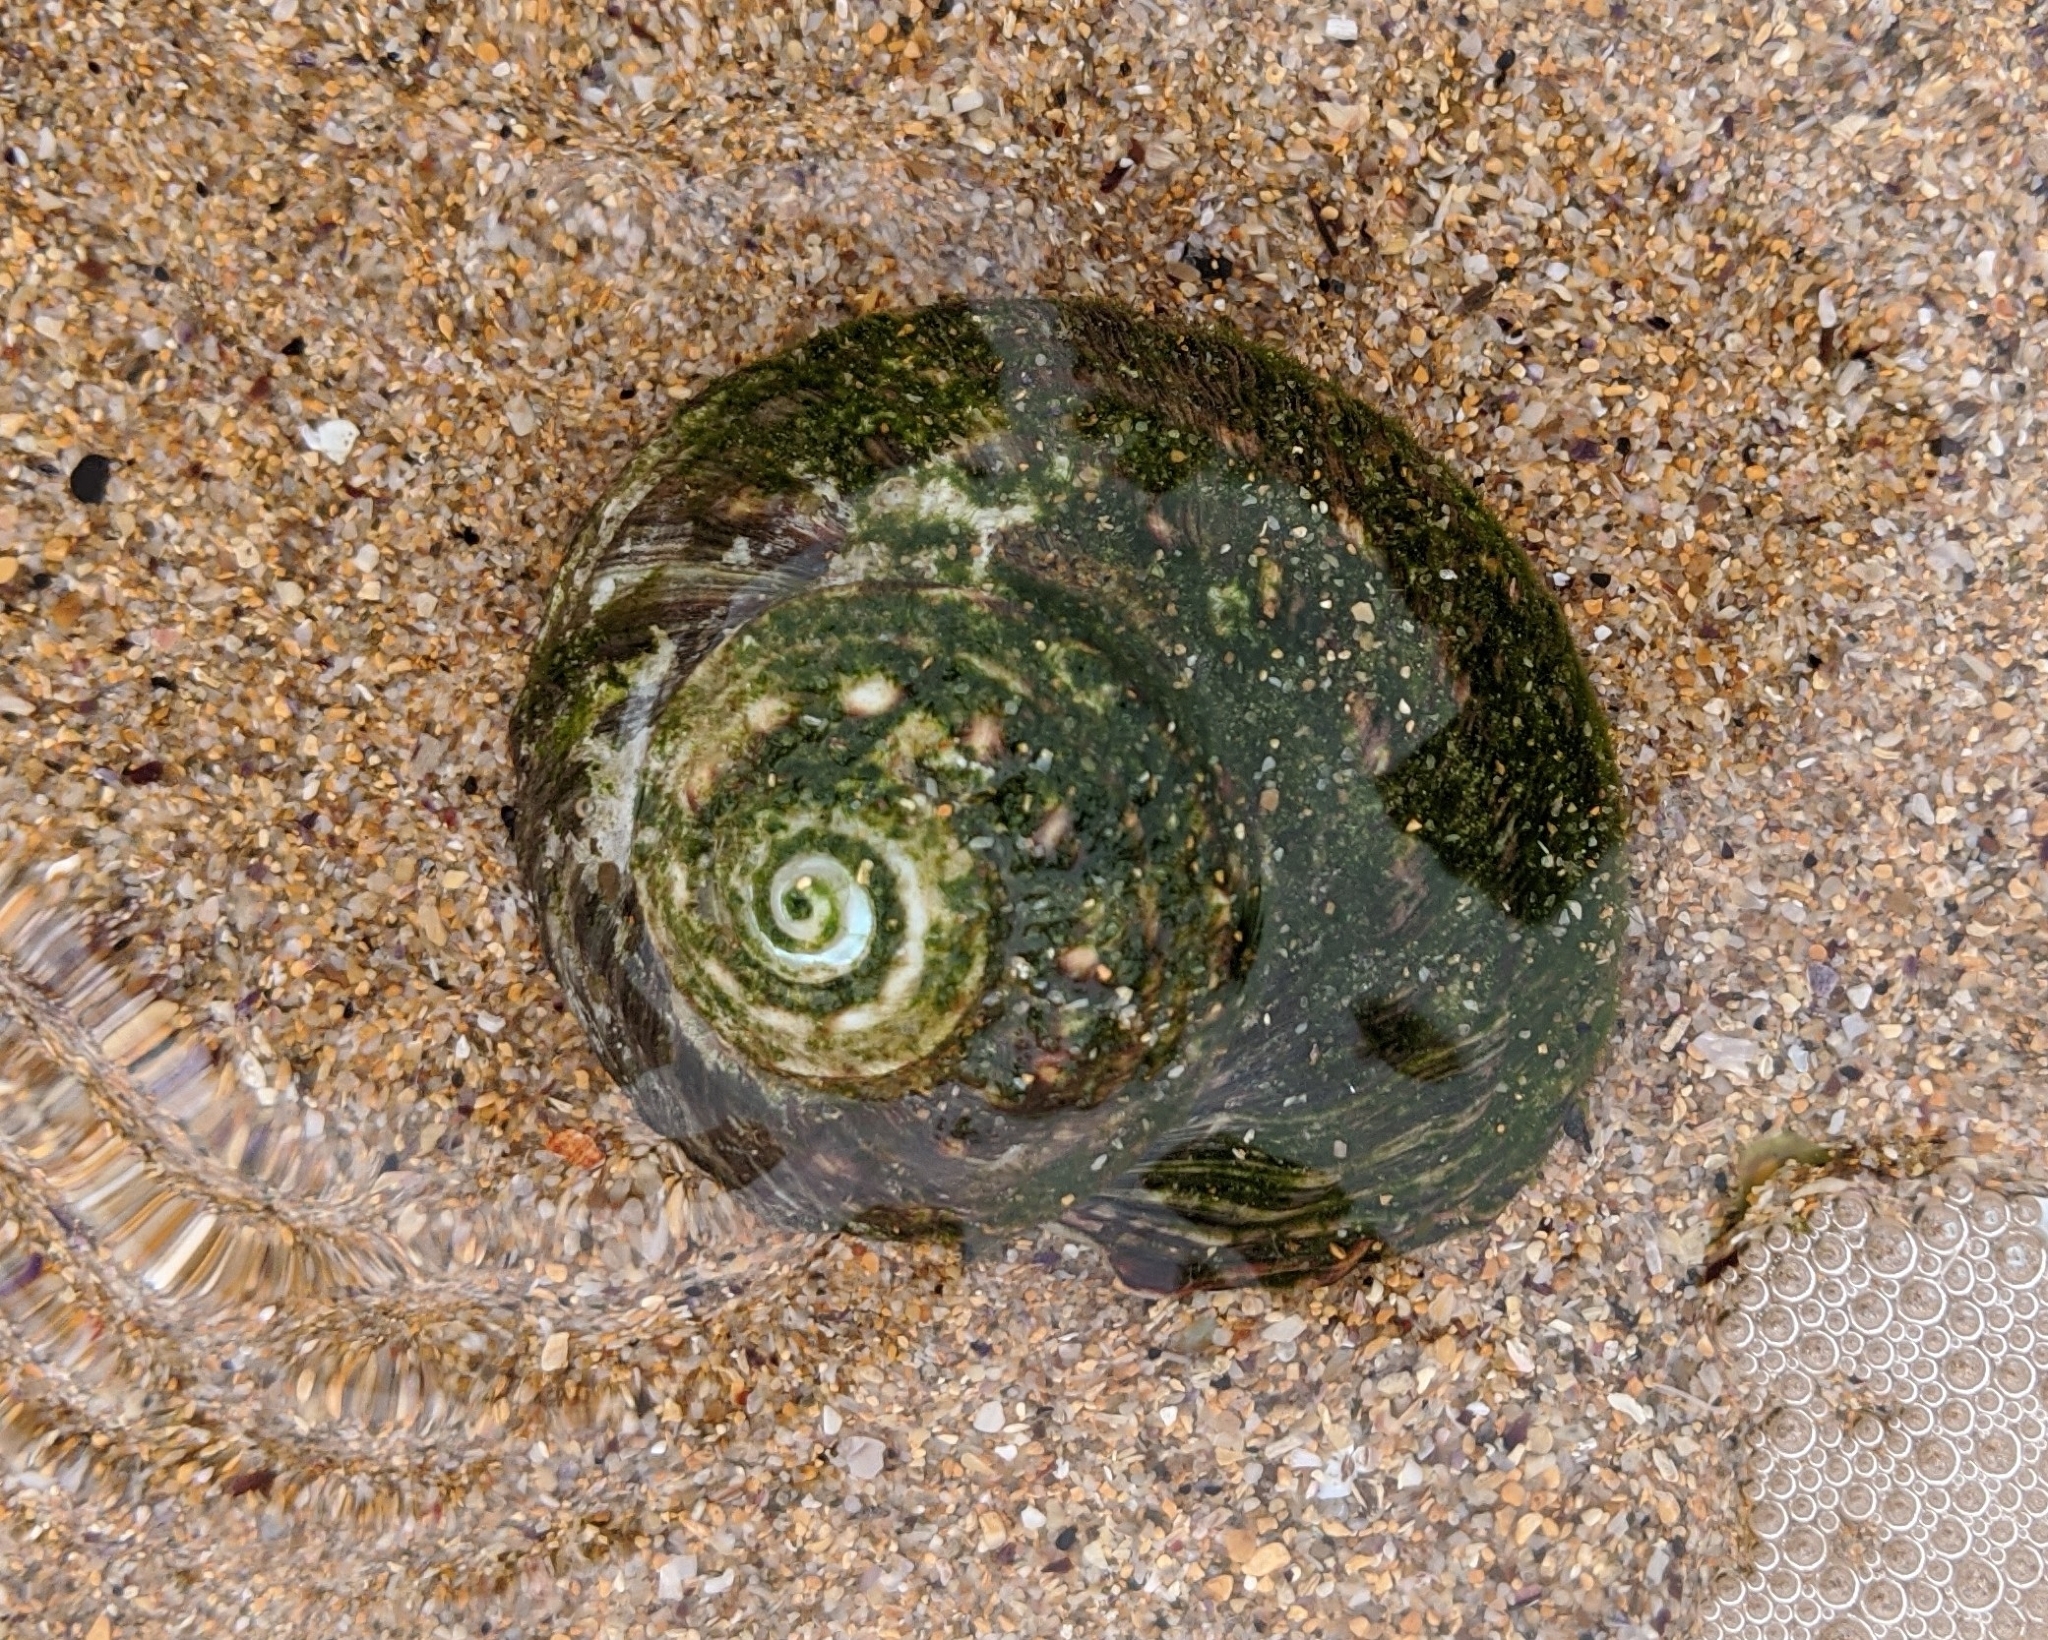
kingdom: Animalia
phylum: Mollusca
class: Gastropoda
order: Trochida
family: Turbinidae
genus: Lunella
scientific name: Lunella torquata
